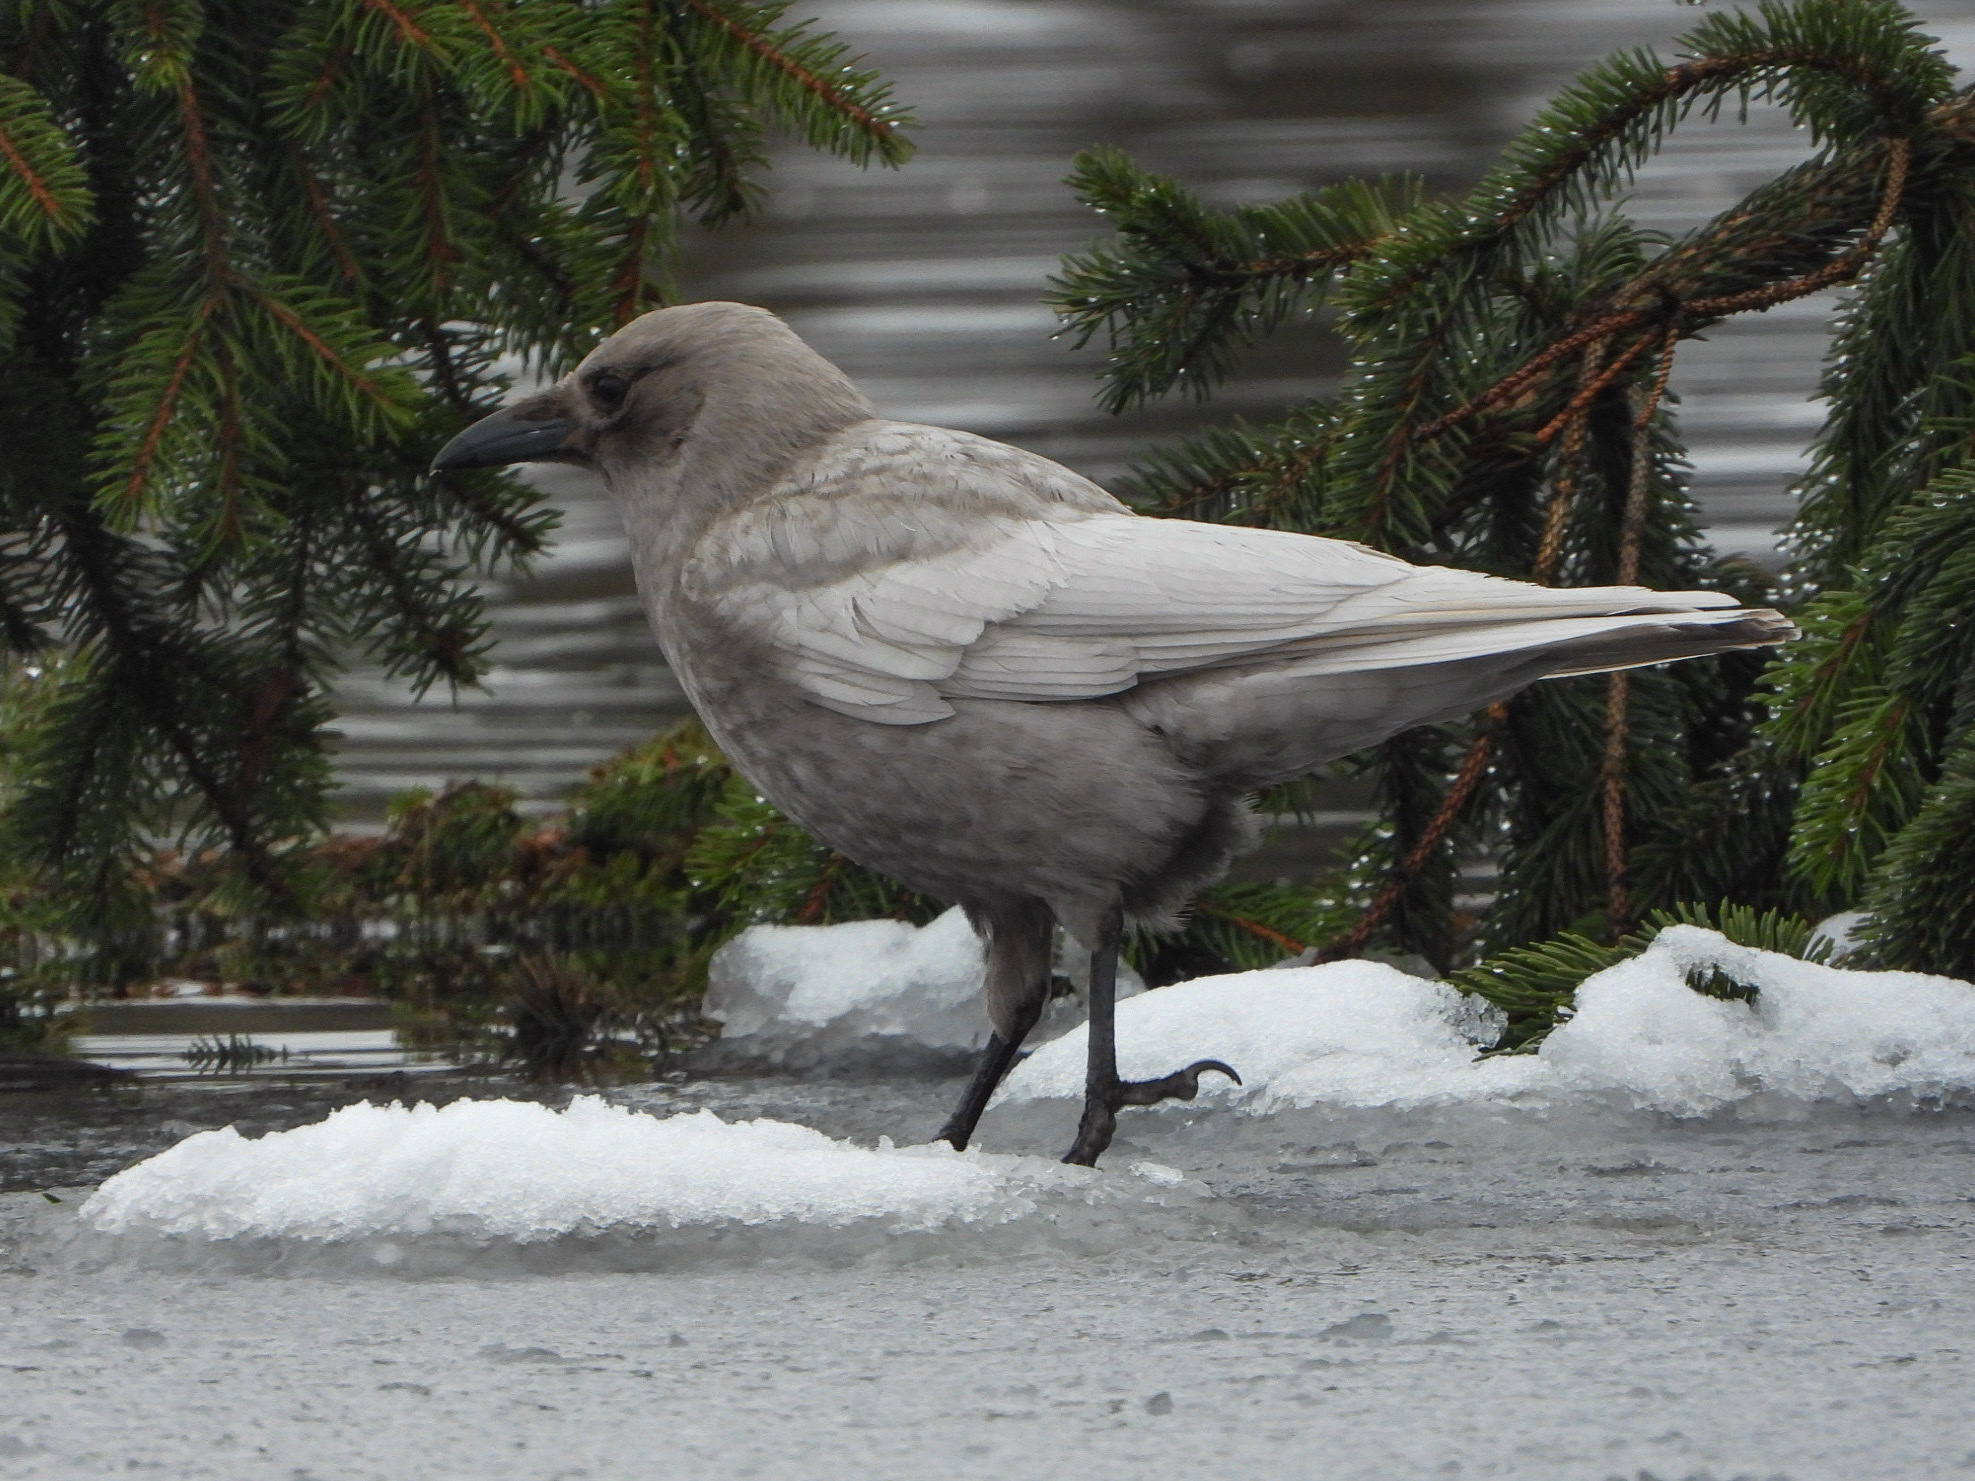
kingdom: Animalia
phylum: Chordata
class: Aves
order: Passeriformes
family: Corvidae
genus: Corvus
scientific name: Corvus brachyrhynchos
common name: American crow
